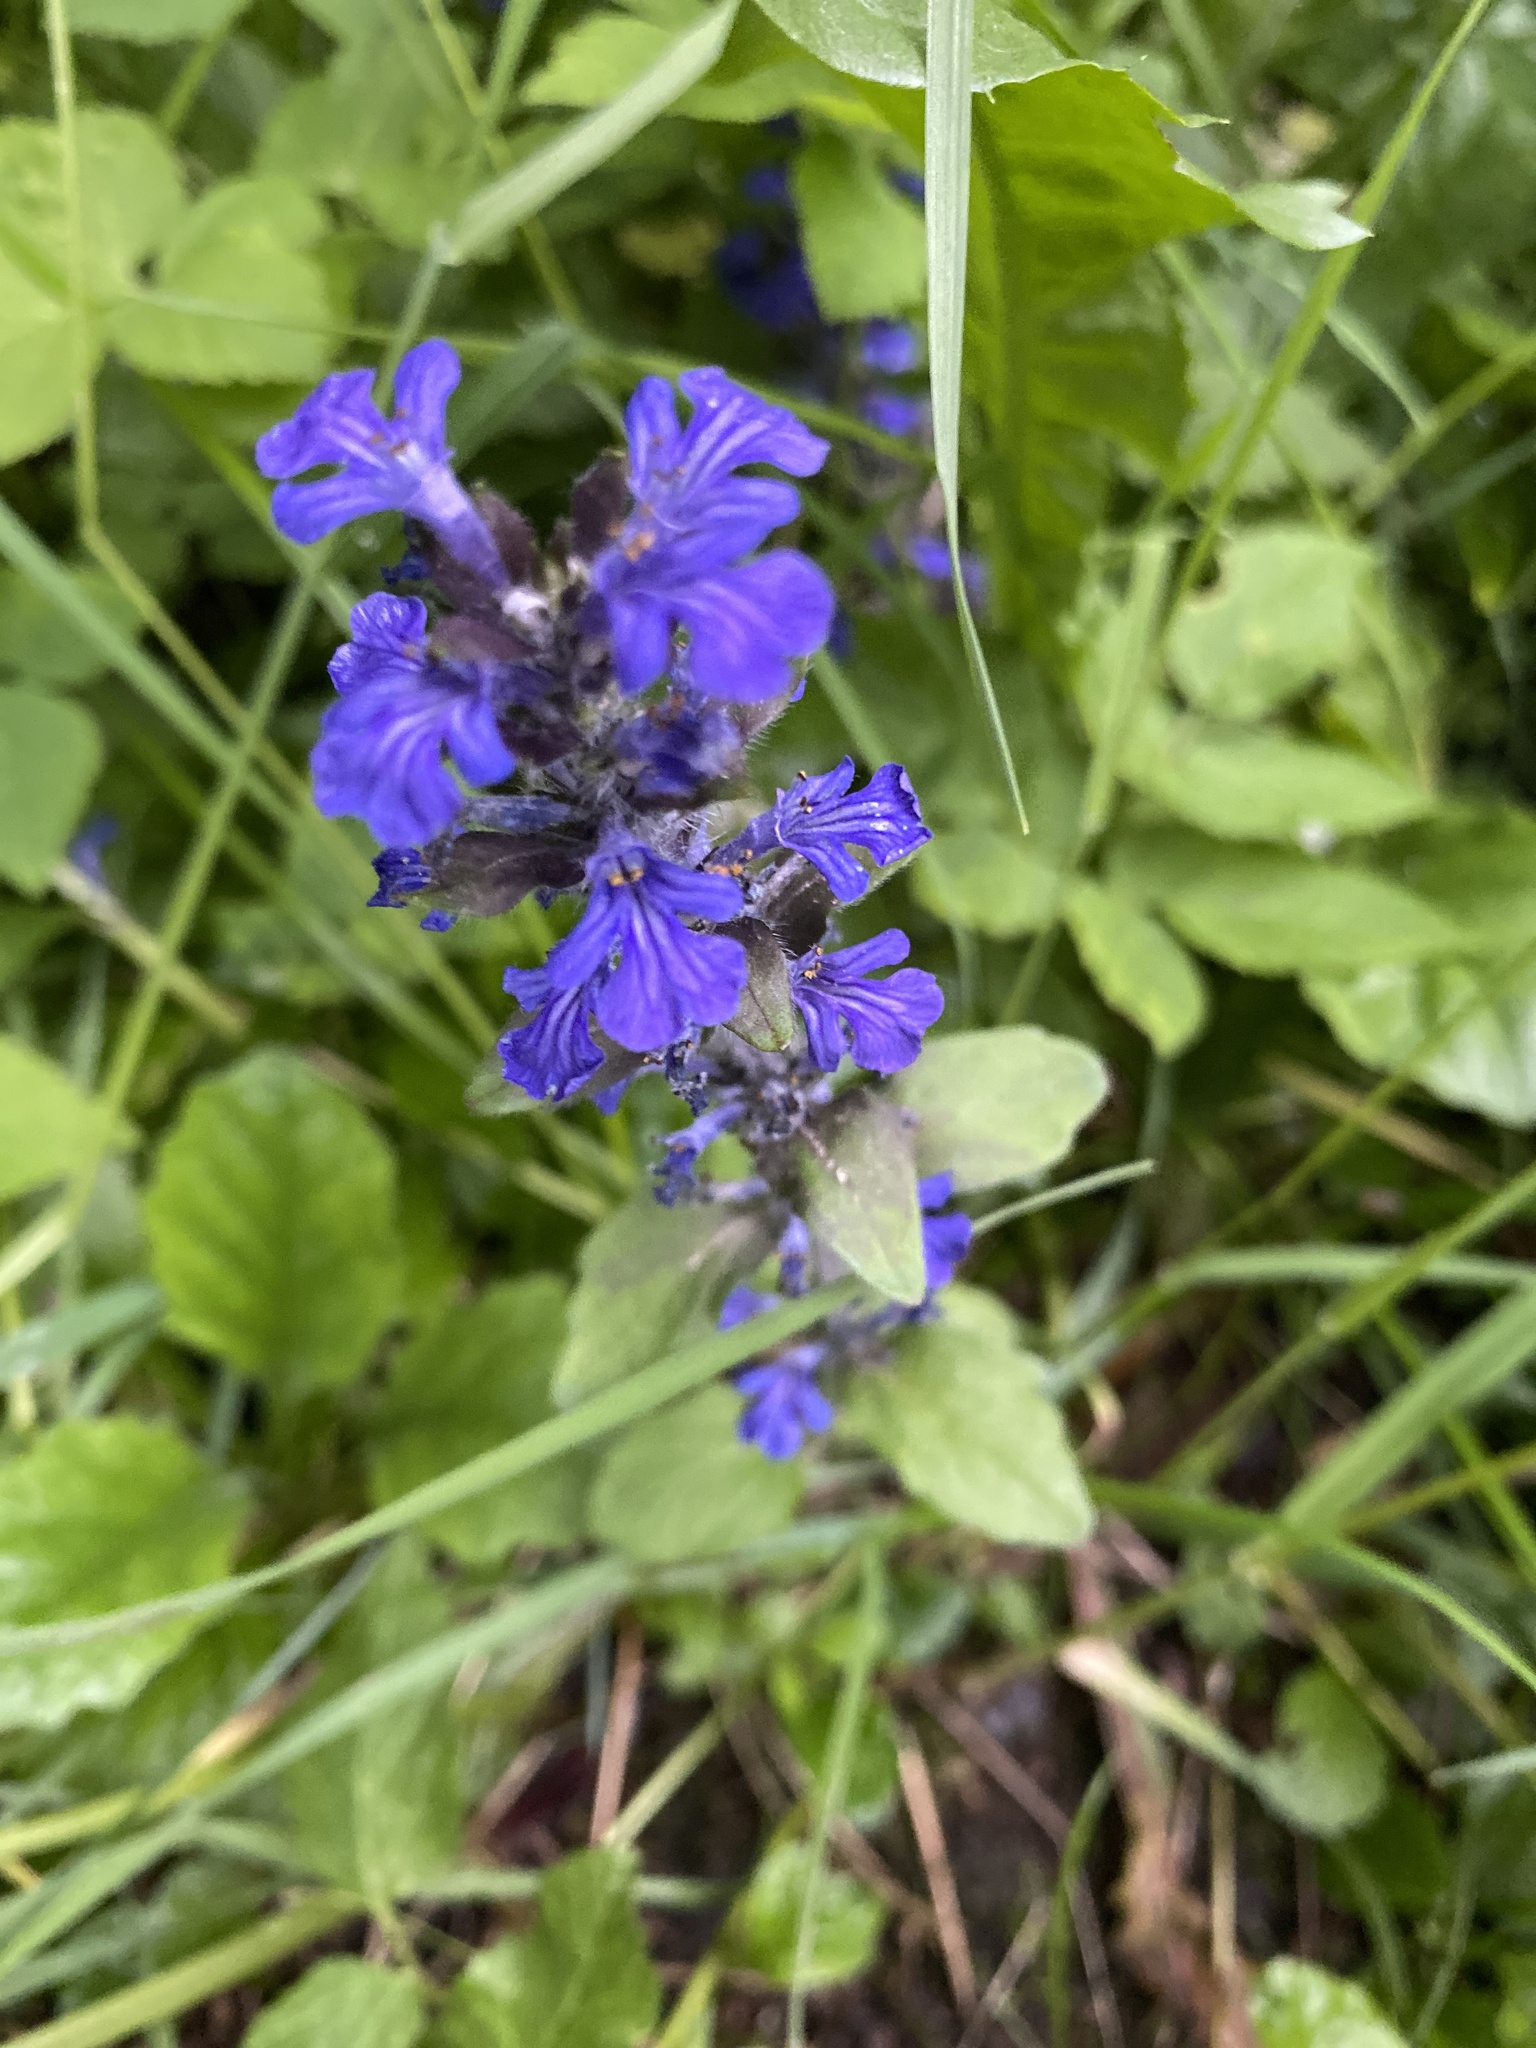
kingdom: Plantae
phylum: Tracheophyta
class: Magnoliopsida
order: Lamiales
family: Lamiaceae
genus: Ajuga
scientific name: Ajuga reptans
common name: Bugle
